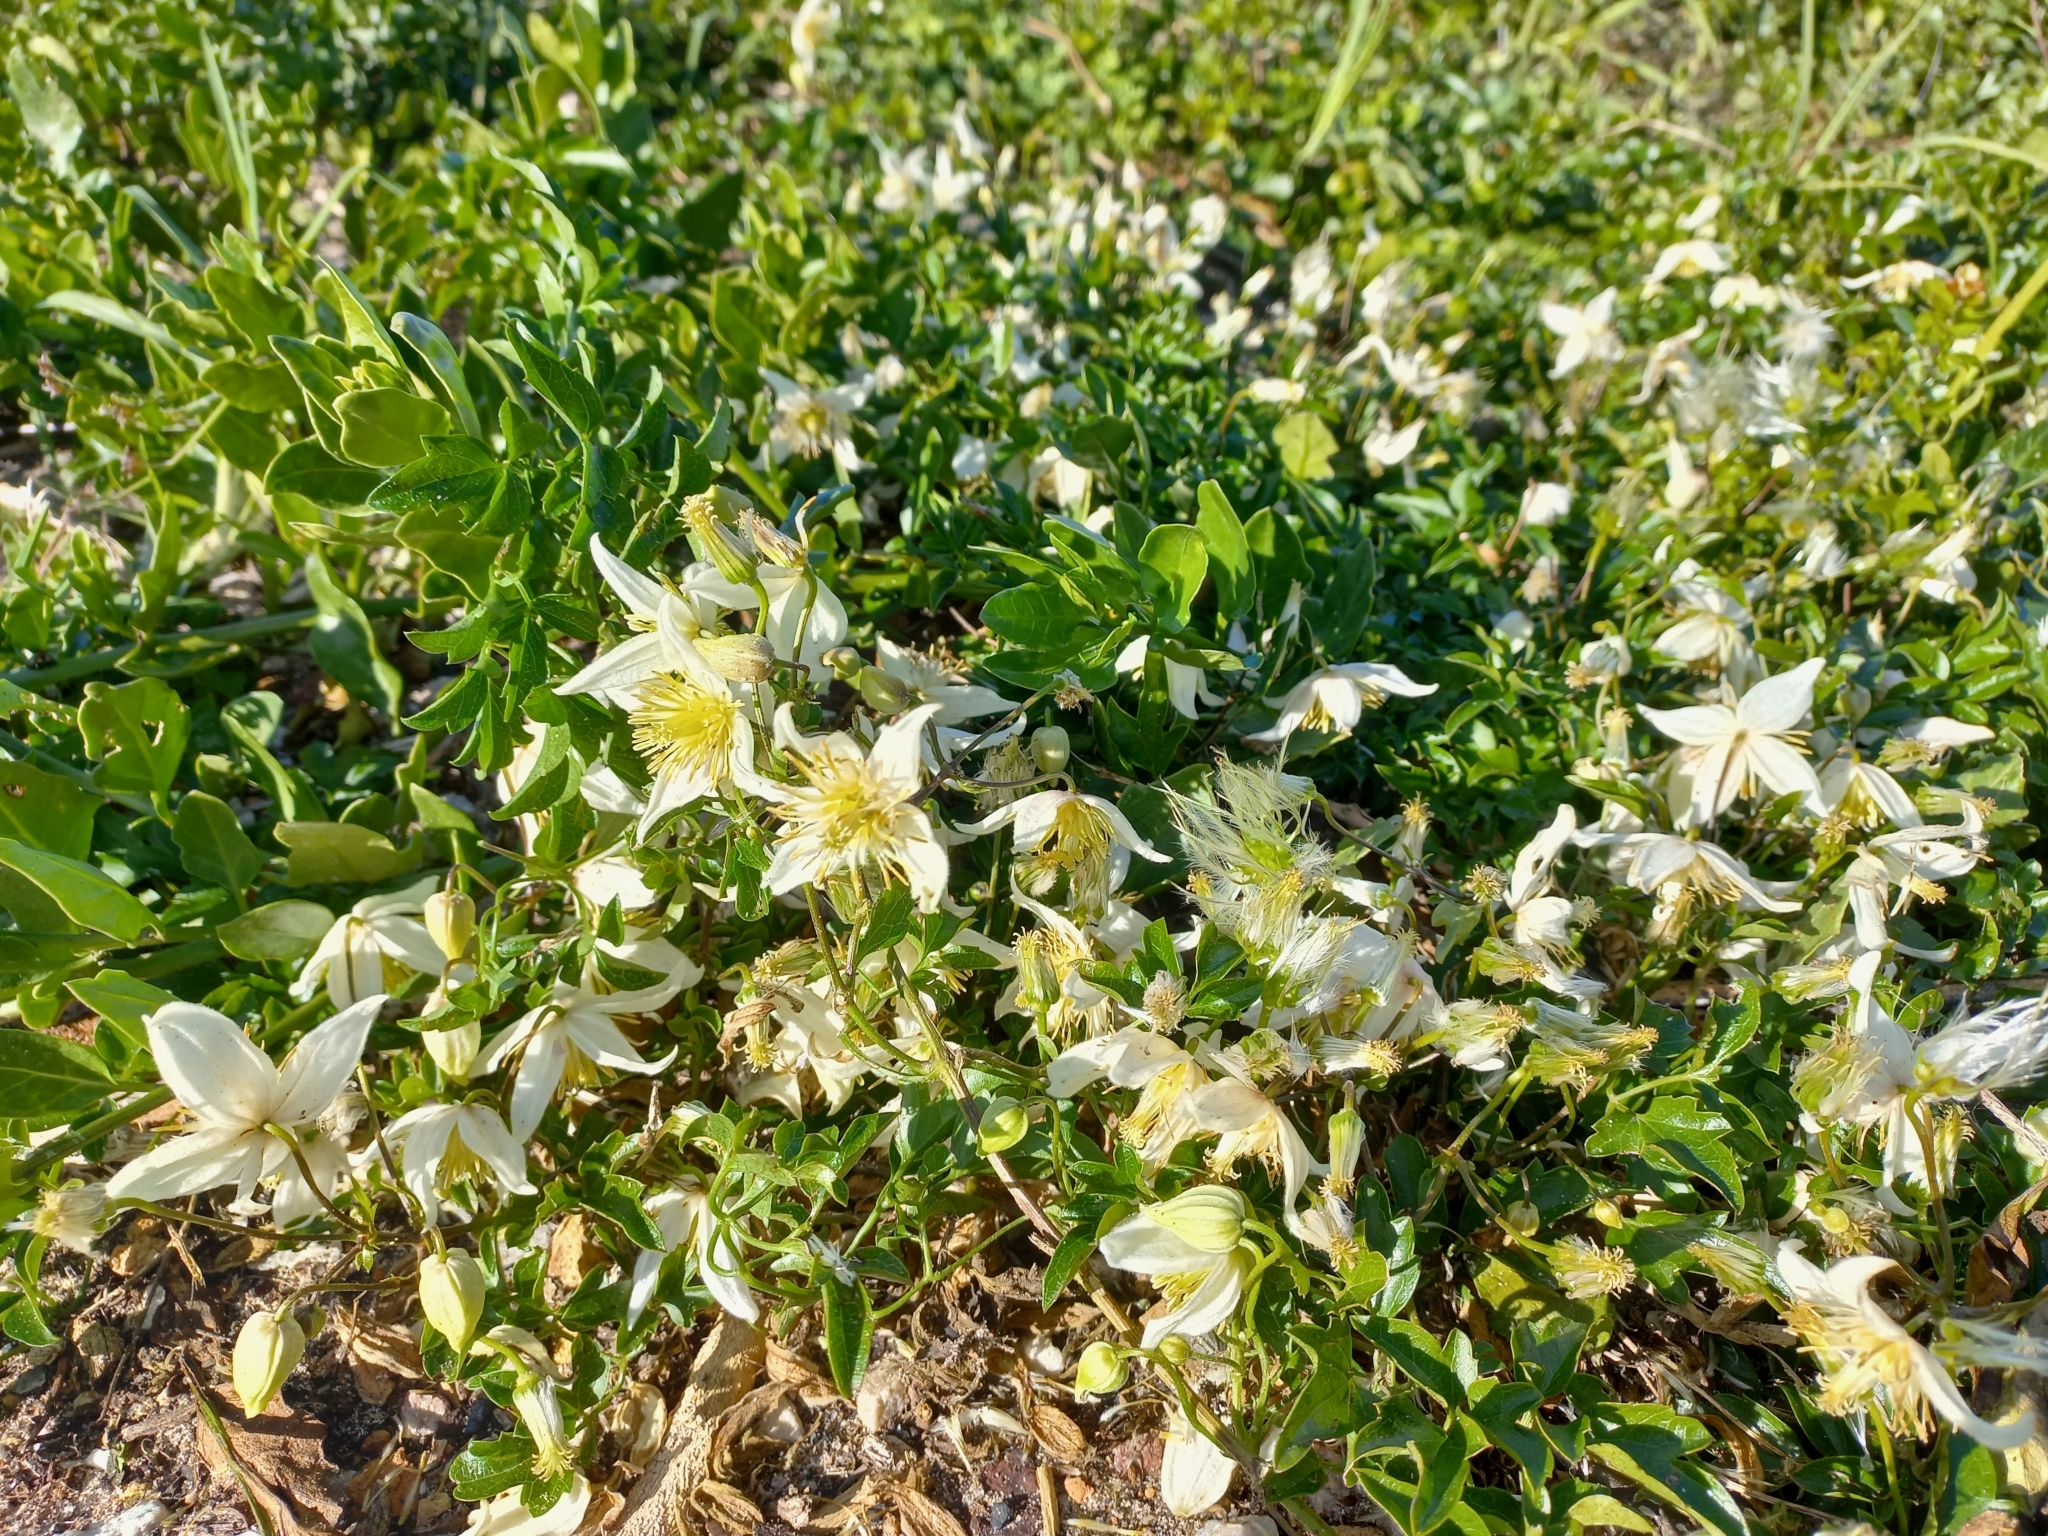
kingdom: Plantae
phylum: Tracheophyta
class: Magnoliopsida
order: Ranunculales
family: Ranunculaceae
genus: Clematis
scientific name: Clematis brachiata
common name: Traveler's-joy
